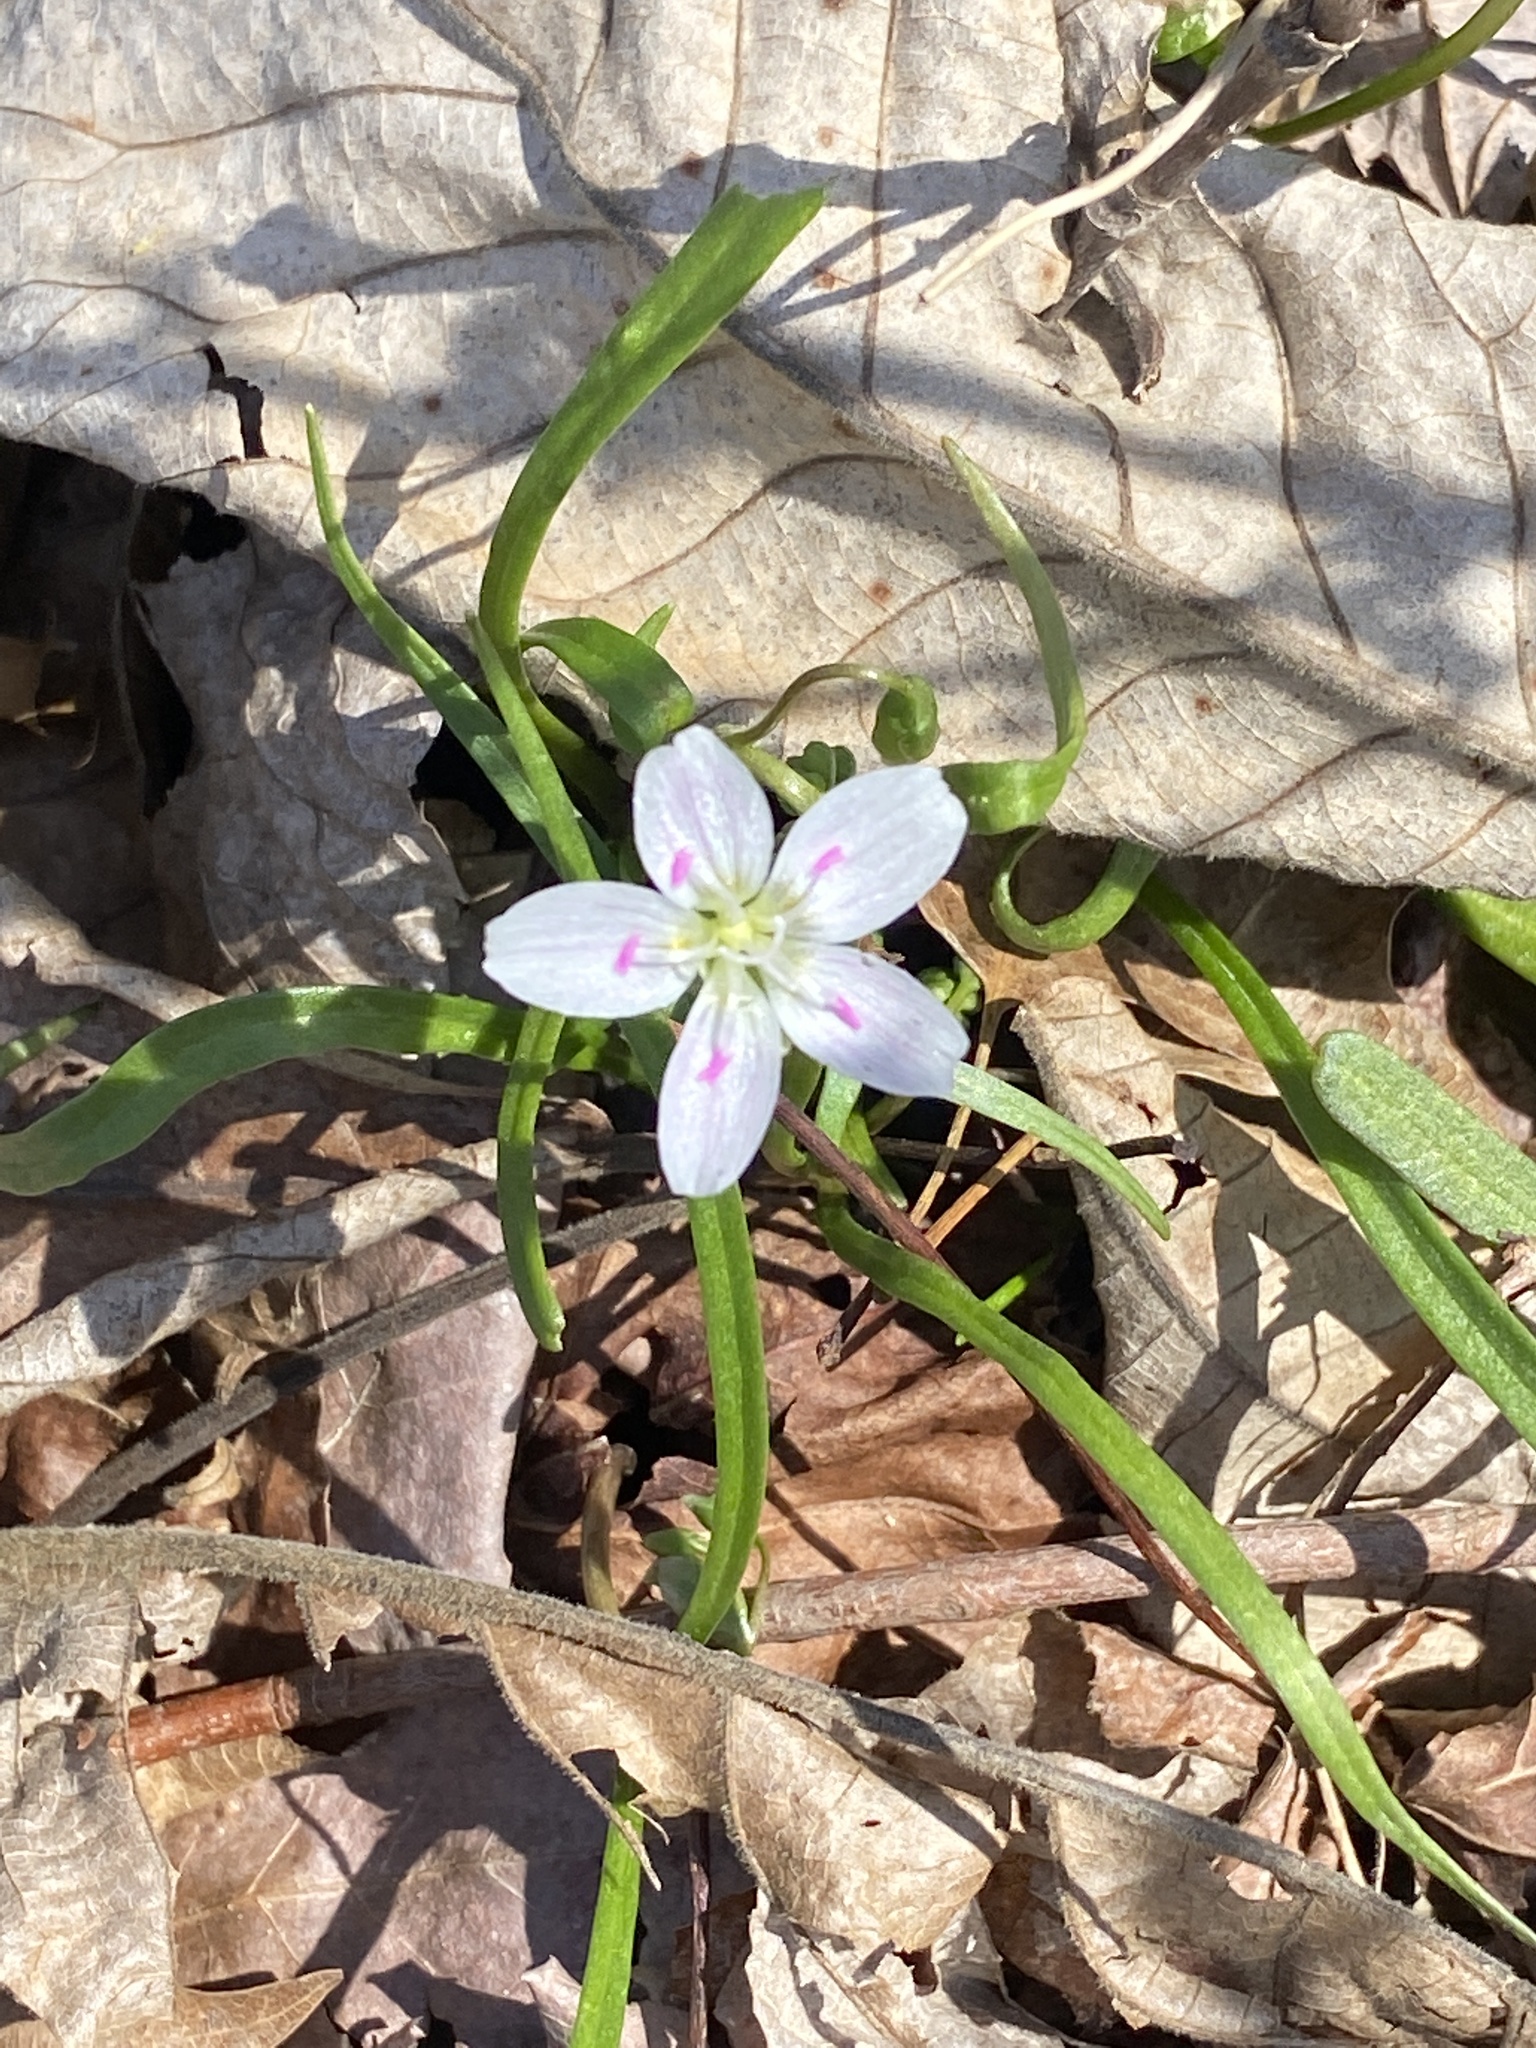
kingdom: Plantae
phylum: Tracheophyta
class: Magnoliopsida
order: Caryophyllales
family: Montiaceae
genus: Claytonia
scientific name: Claytonia virginica
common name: Virginia springbeauty
